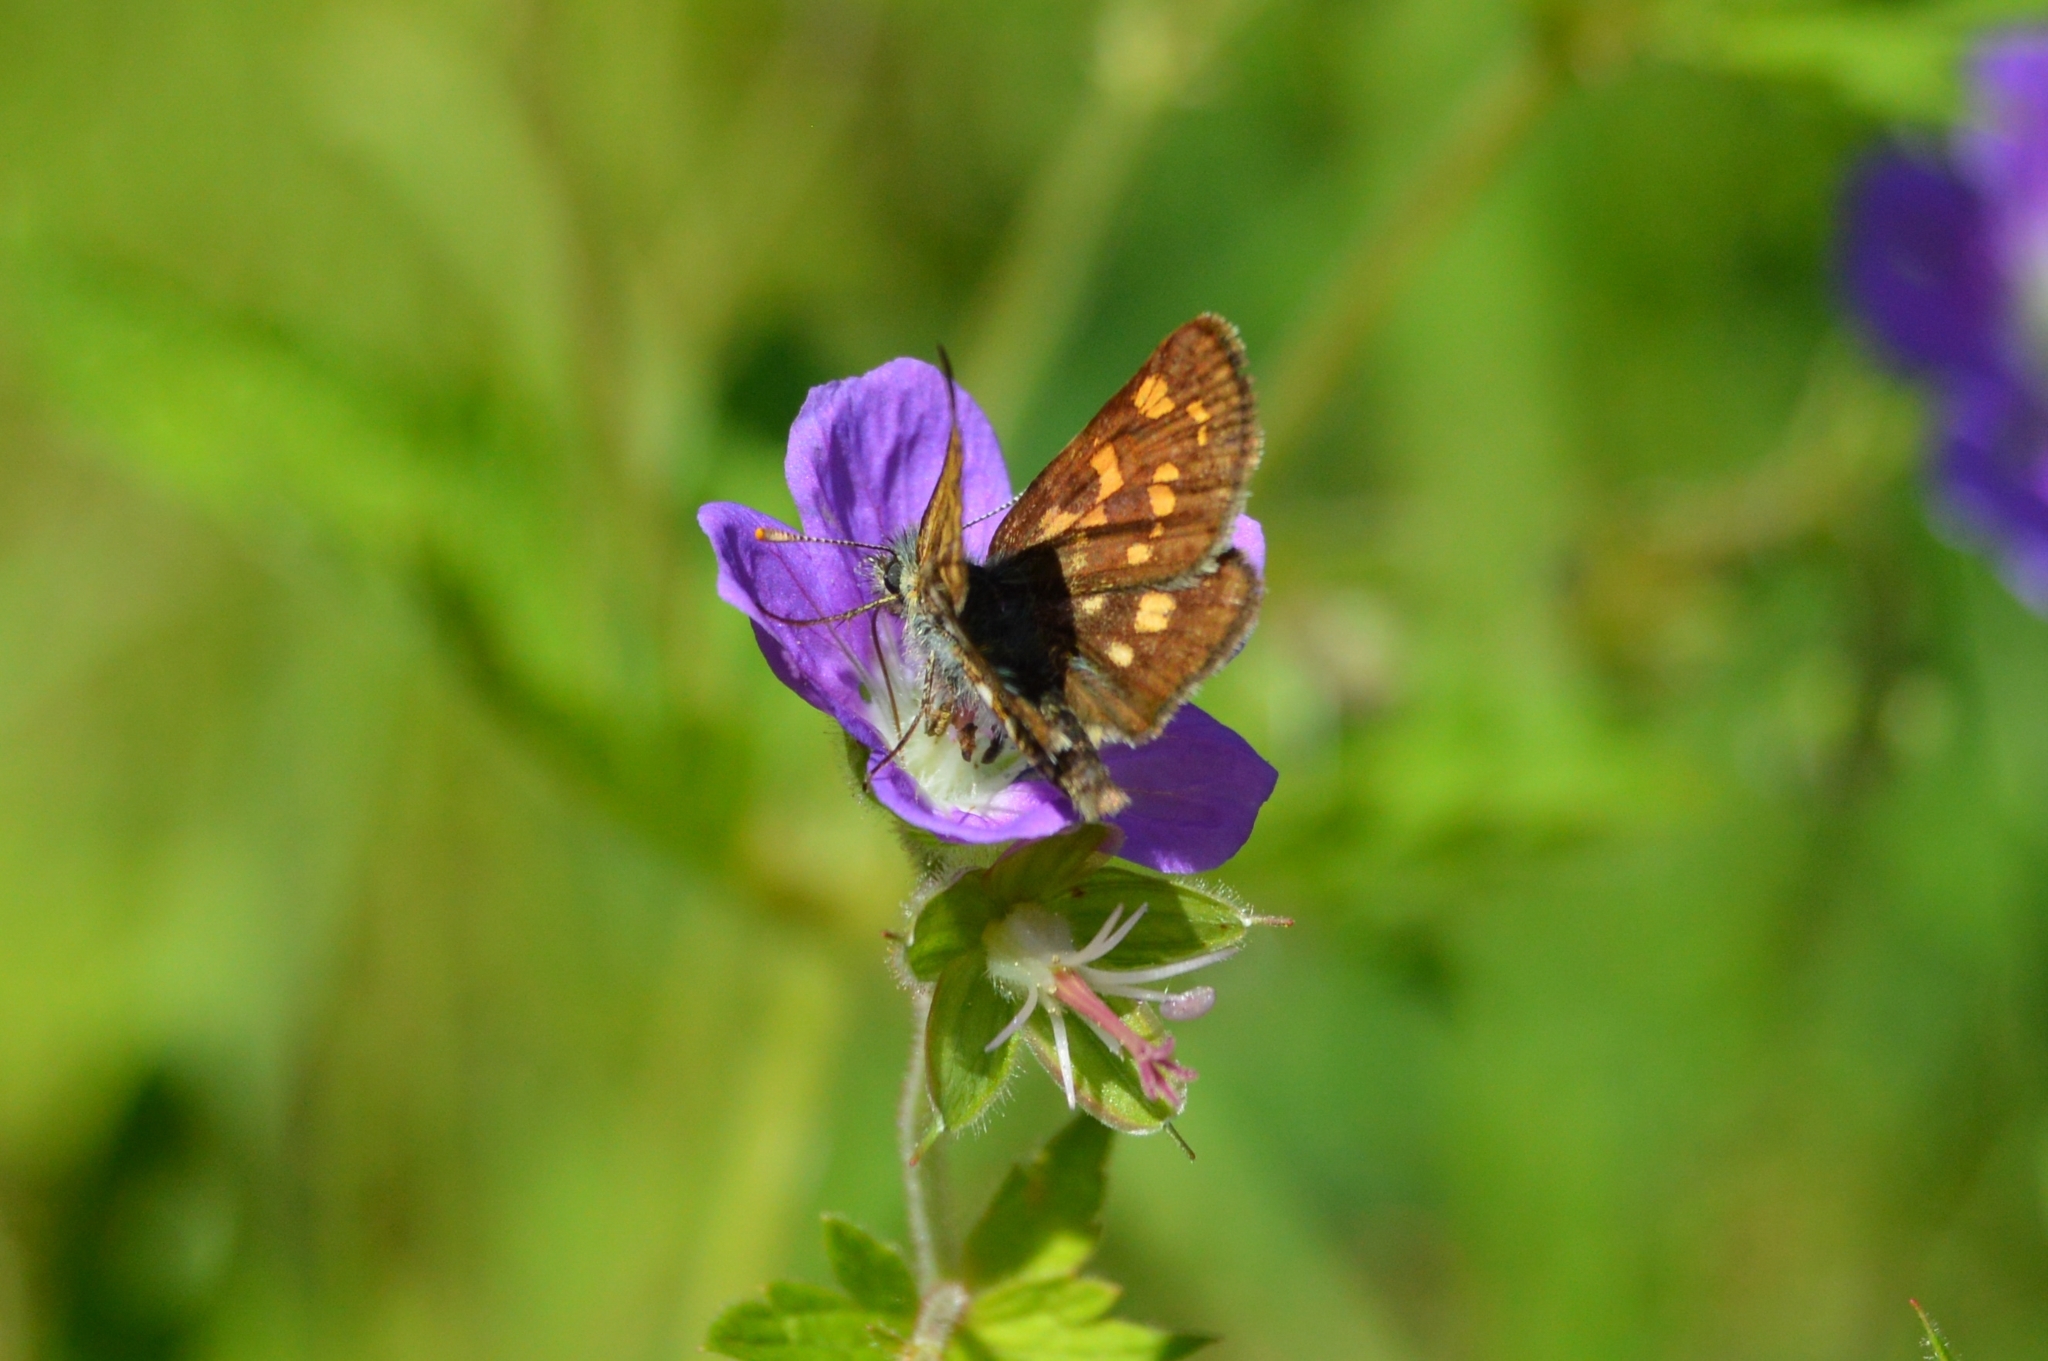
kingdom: Animalia
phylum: Arthropoda
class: Insecta
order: Lepidoptera
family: Hesperiidae
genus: Carterocephalus
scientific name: Carterocephalus palaemon
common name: Chequered skipper
